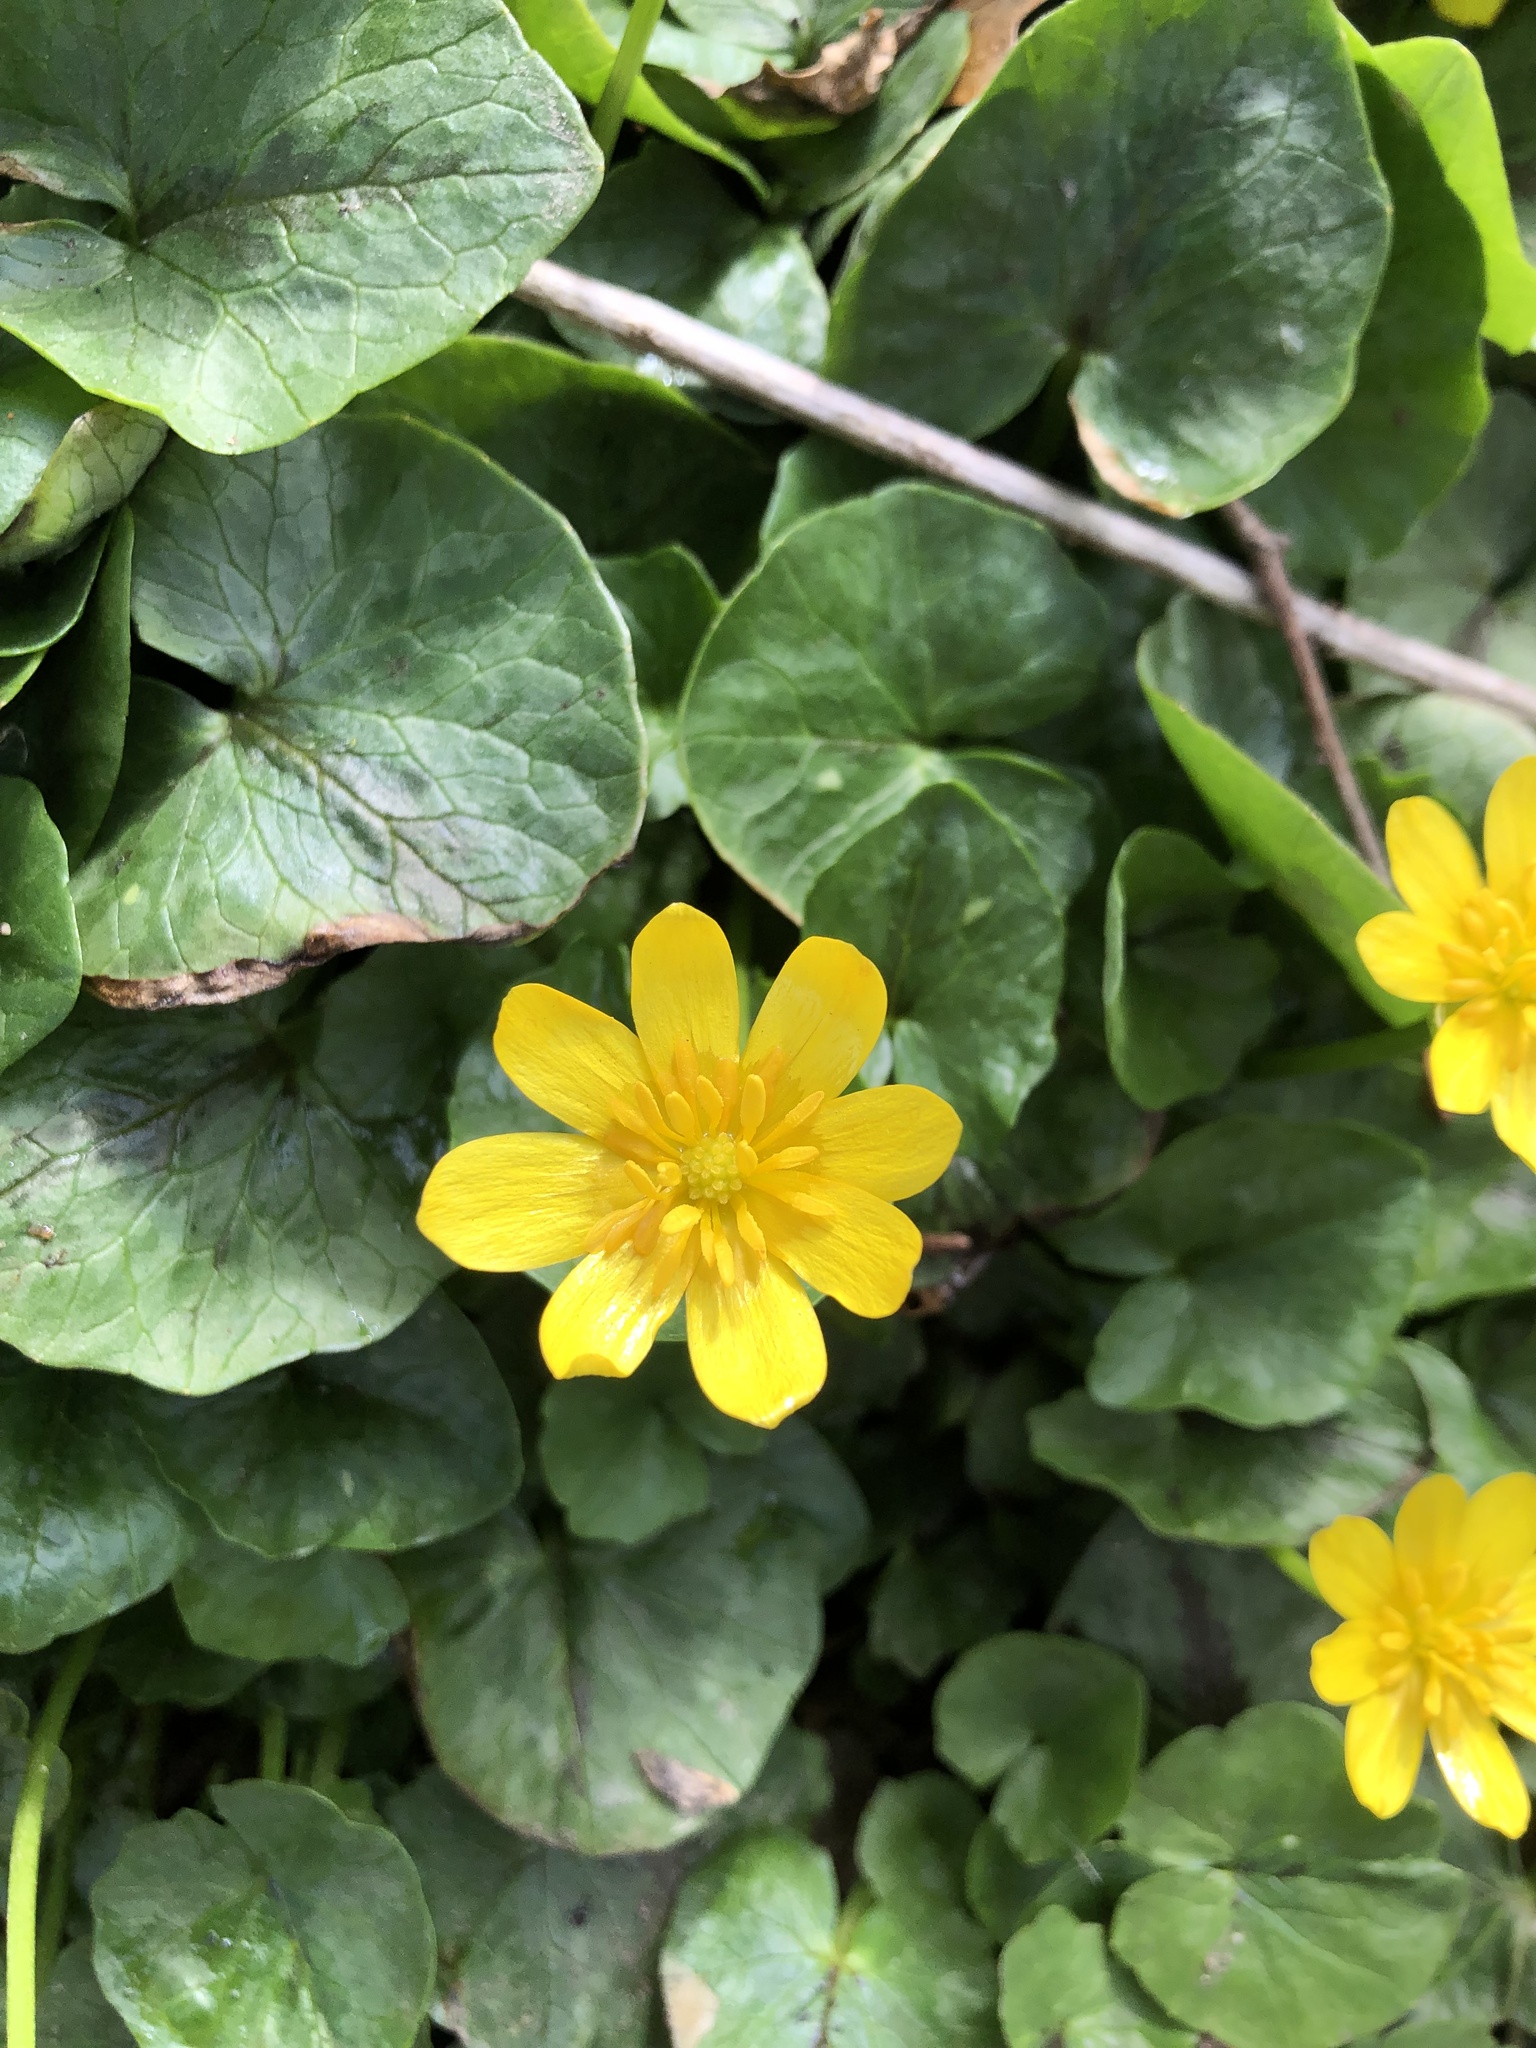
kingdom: Plantae
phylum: Tracheophyta
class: Magnoliopsida
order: Ranunculales
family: Ranunculaceae
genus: Ficaria
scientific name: Ficaria verna
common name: Lesser celandine
